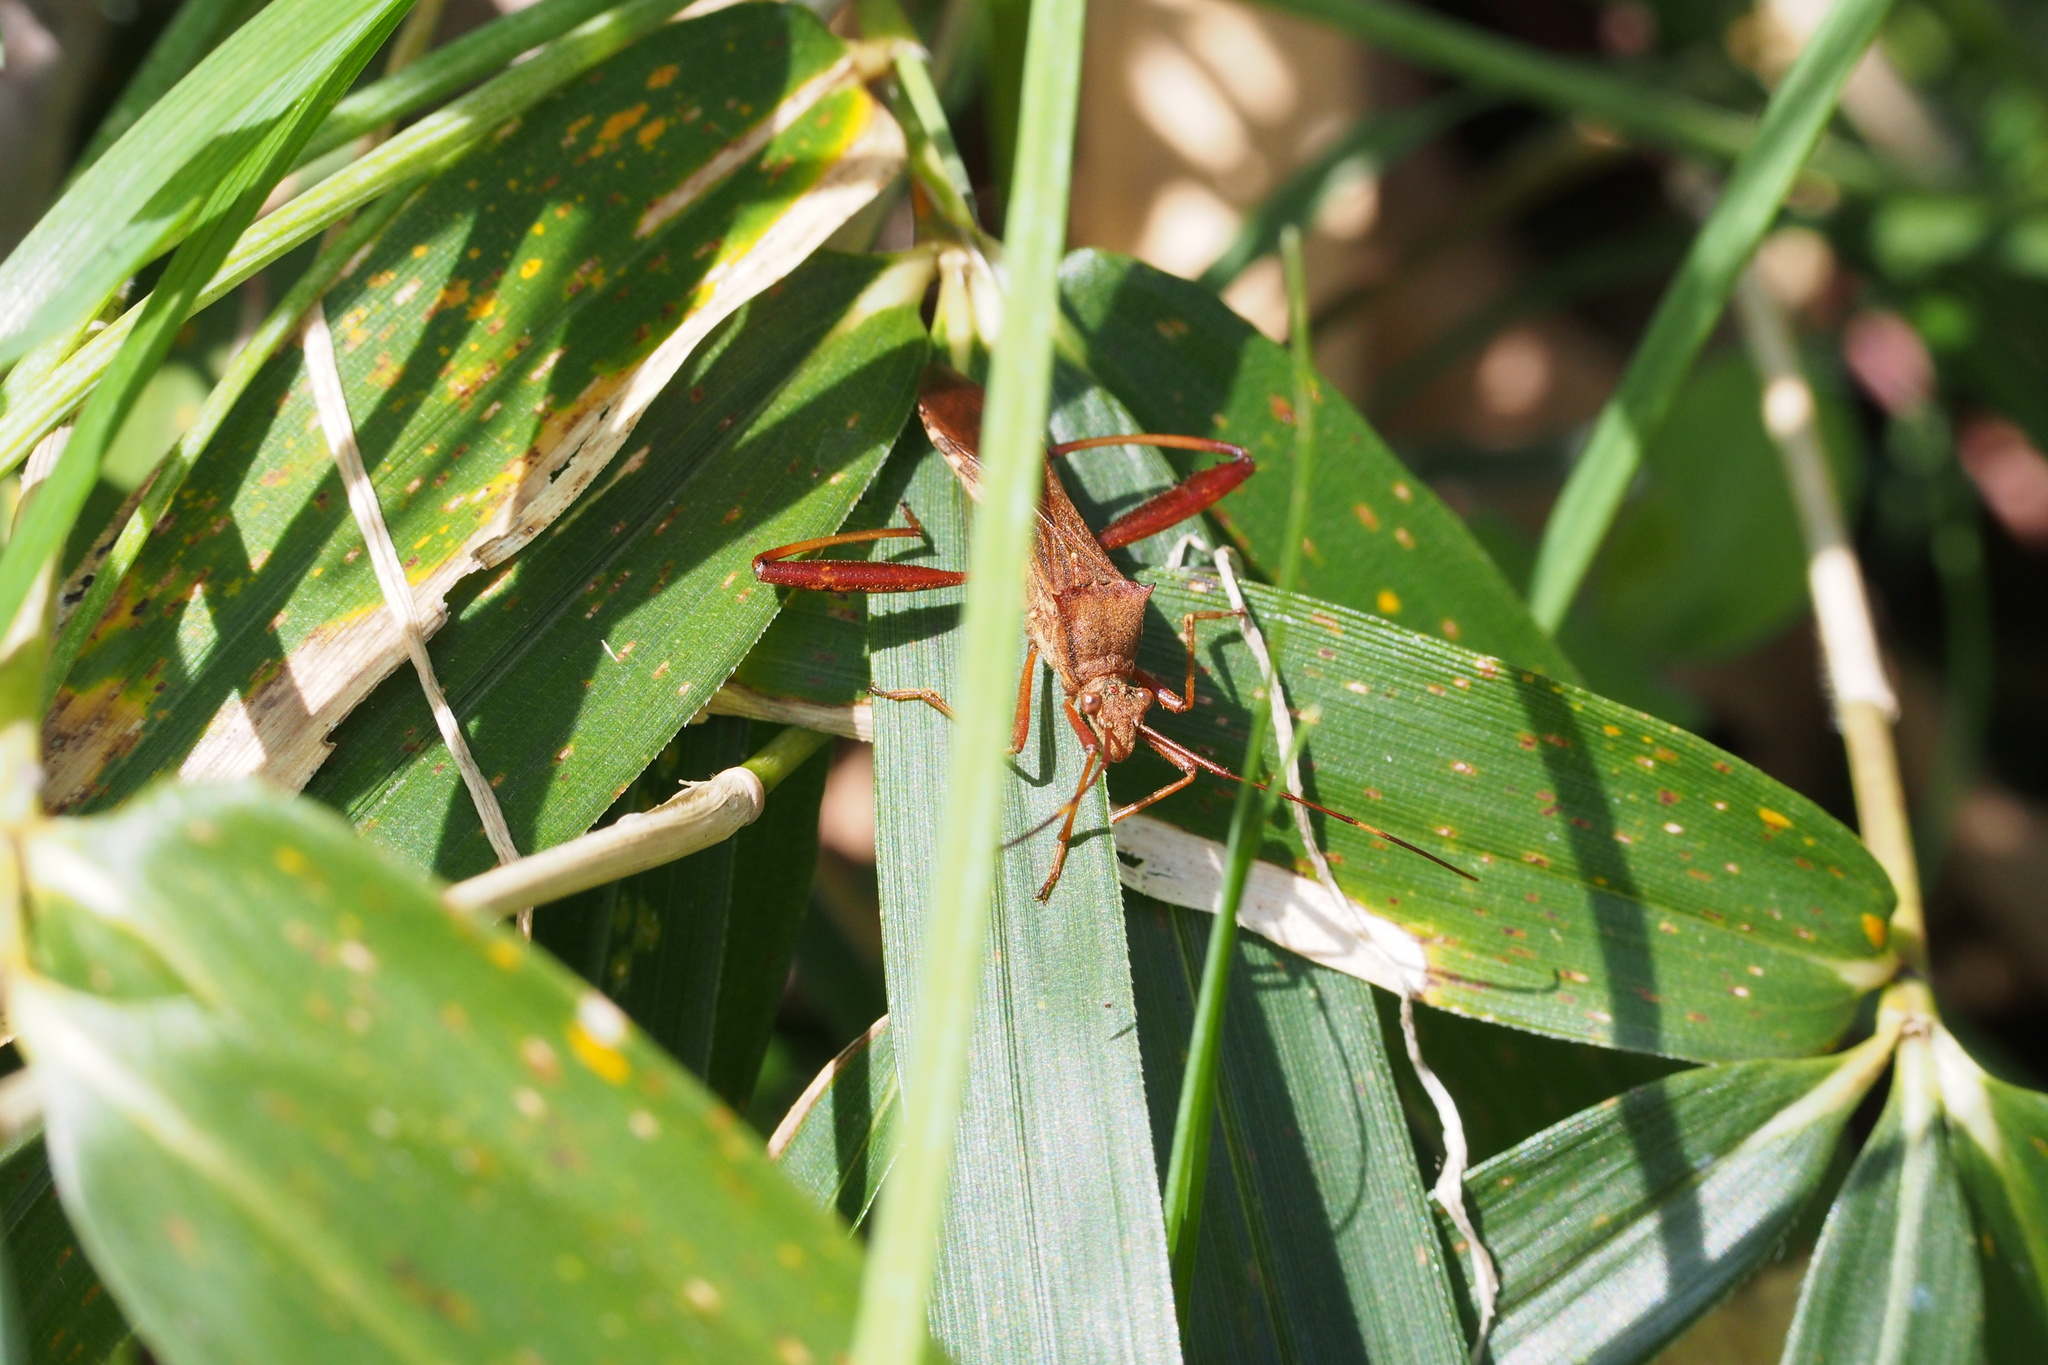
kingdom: Animalia
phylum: Arthropoda
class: Insecta
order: Hemiptera
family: Alydidae
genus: Riptortus
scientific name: Riptortus pedestris
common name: Bean bug
